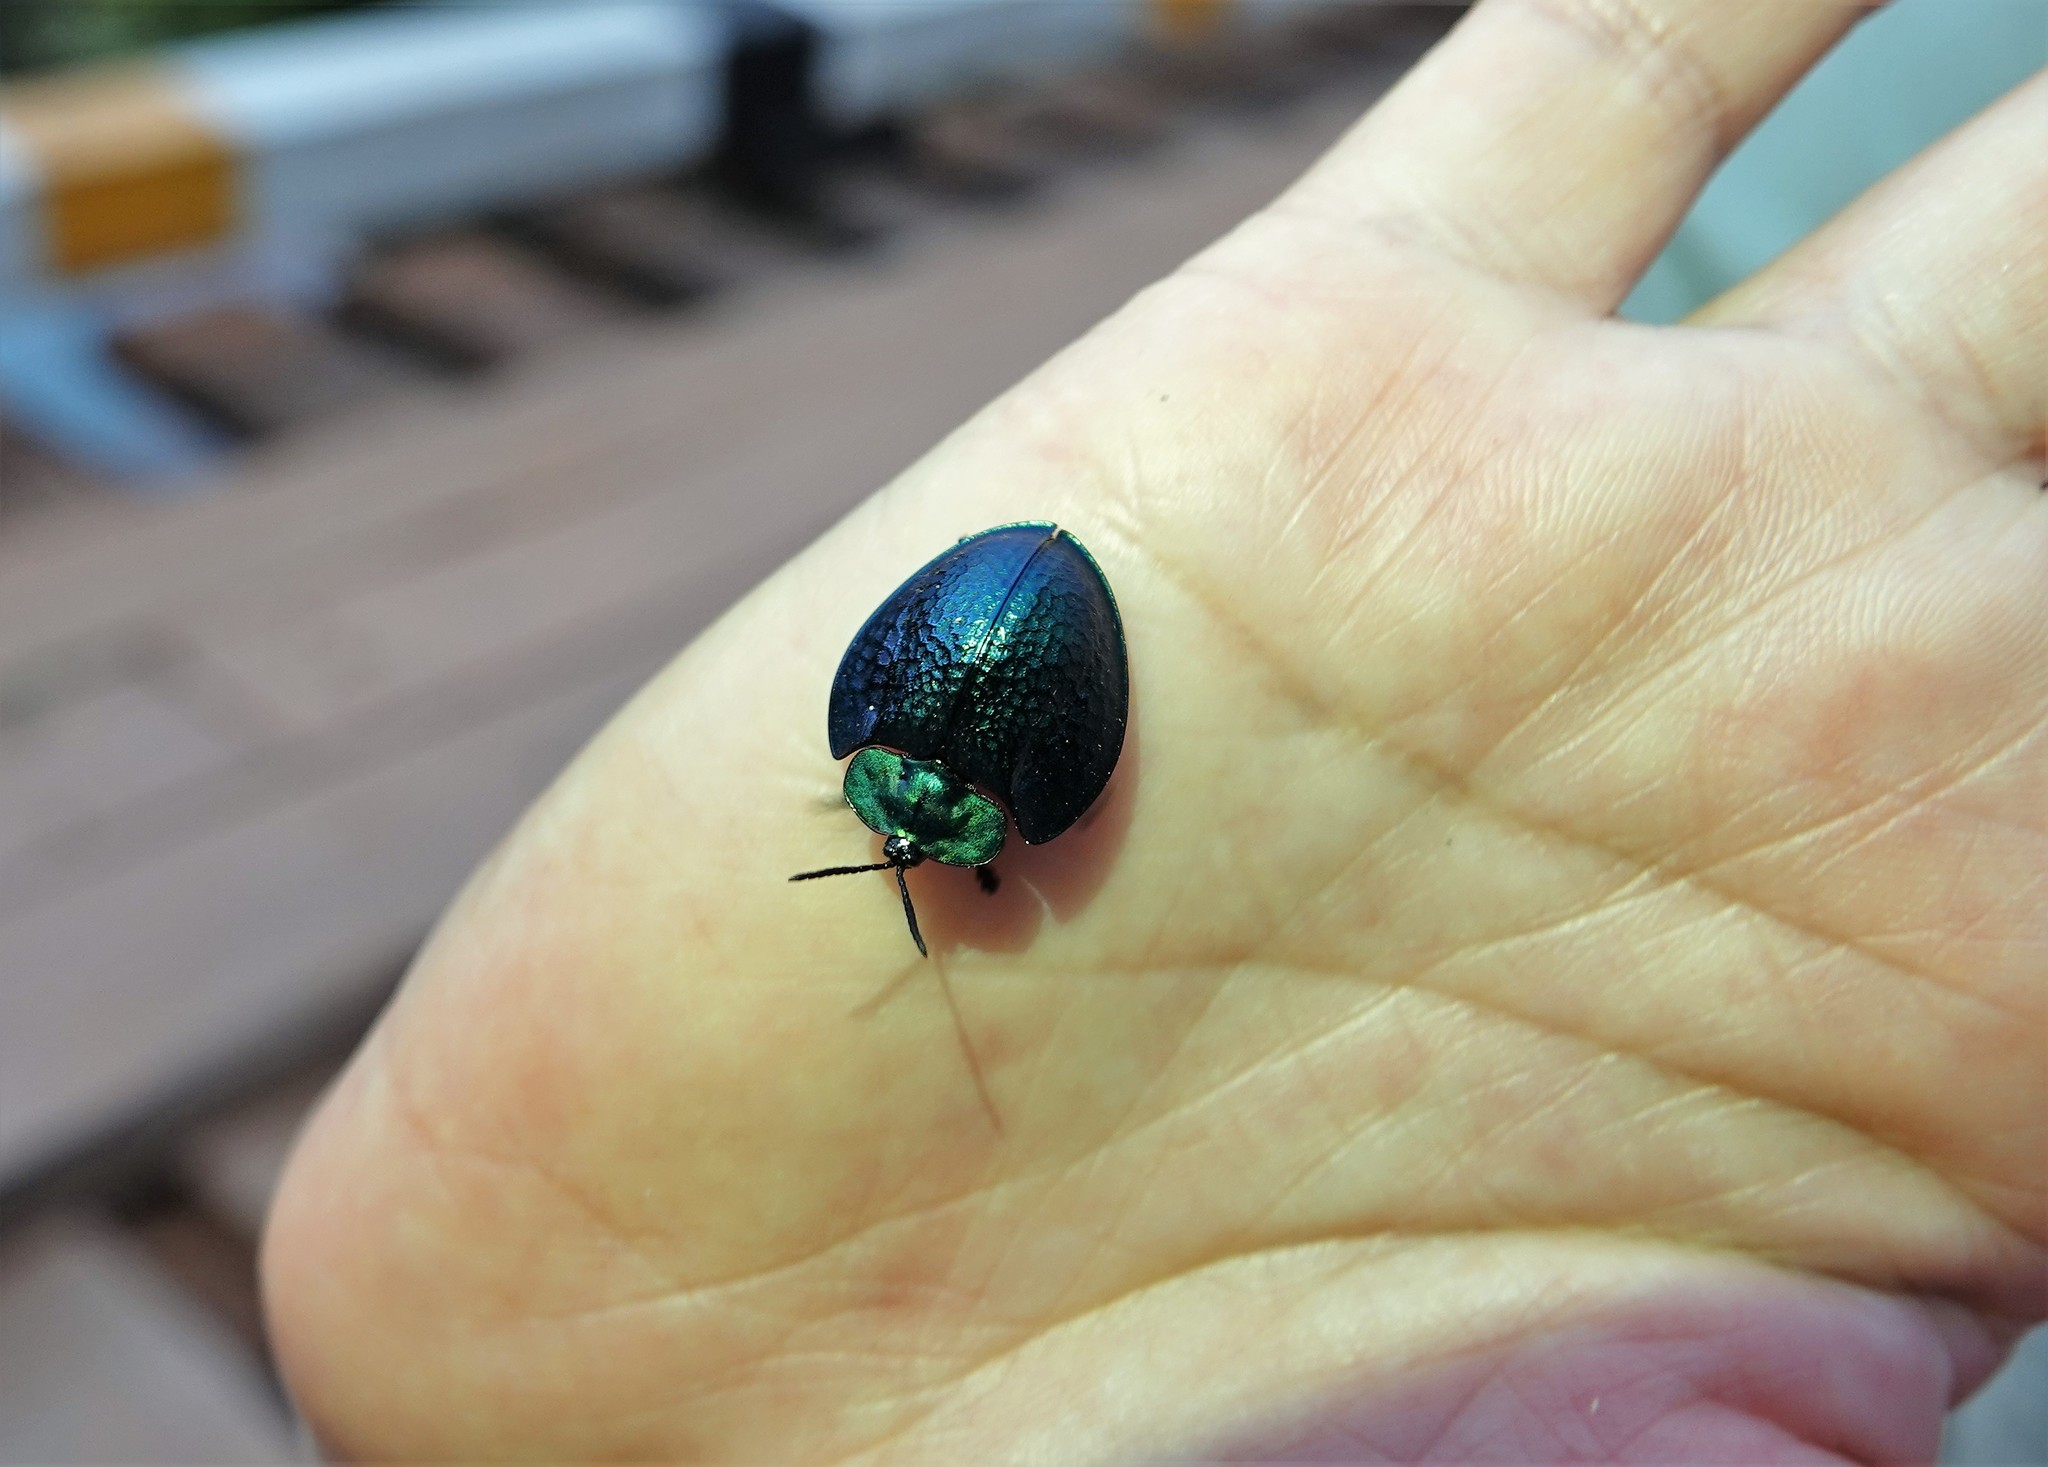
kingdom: Animalia
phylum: Arthropoda
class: Insecta
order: Coleoptera
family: Chrysomelidae
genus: Agenysa
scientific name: Agenysa desmaresti
